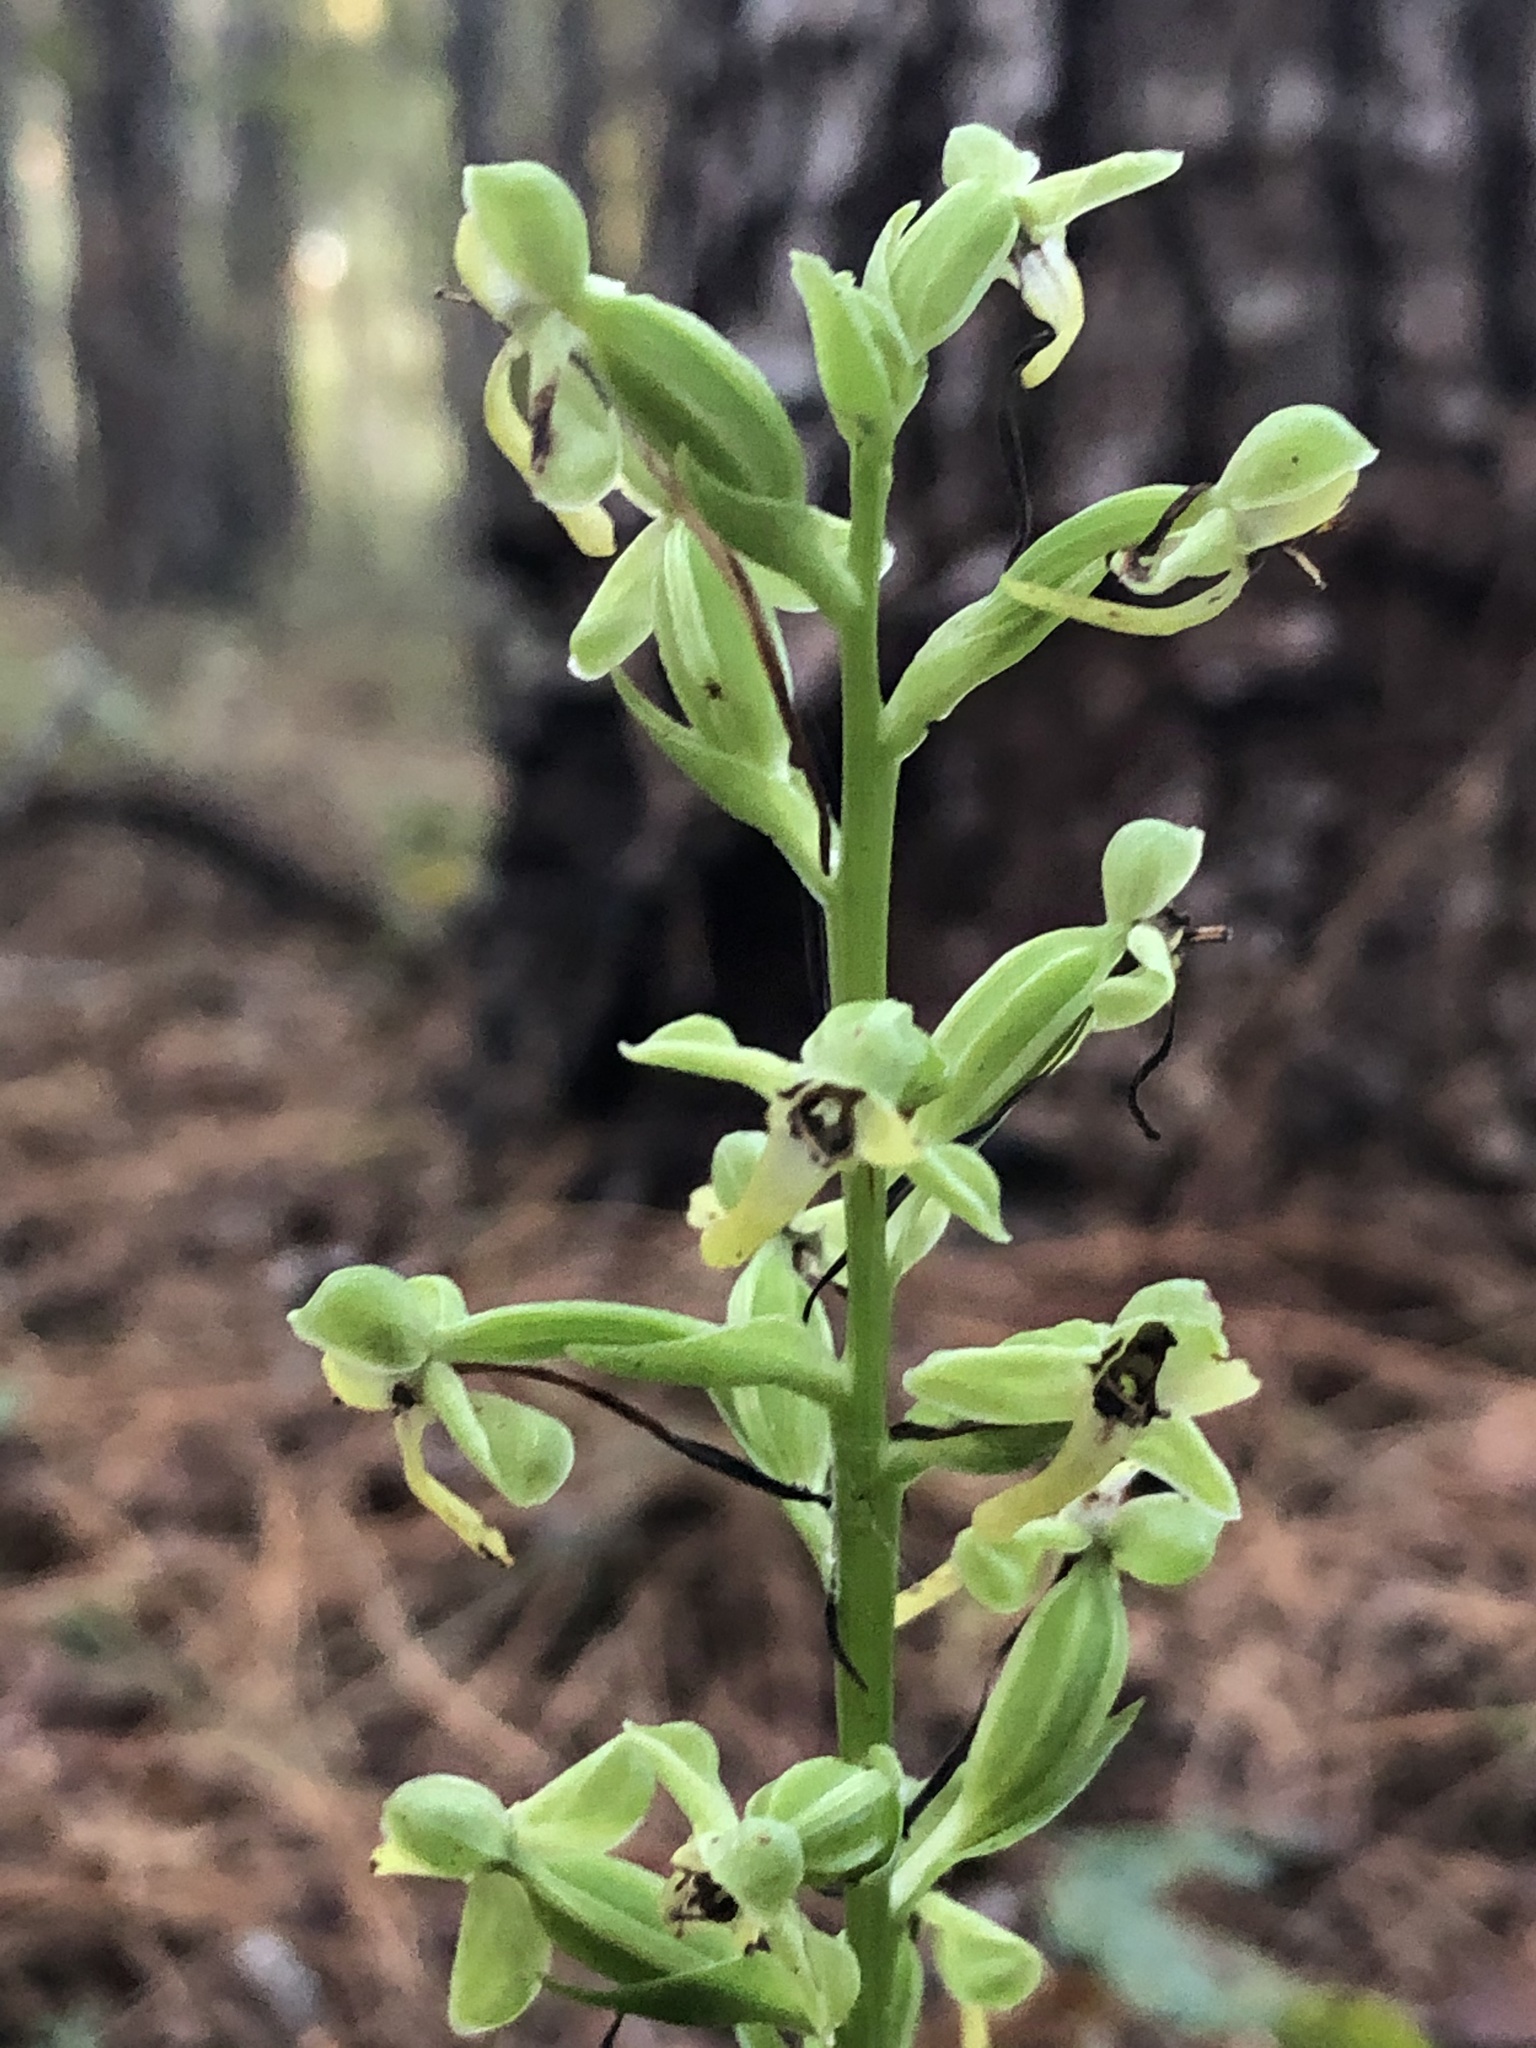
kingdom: Plantae
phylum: Tracheophyta
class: Liliopsida
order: Asparagales
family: Orchidaceae
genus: Habenaria
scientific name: Habenaria floribunda
